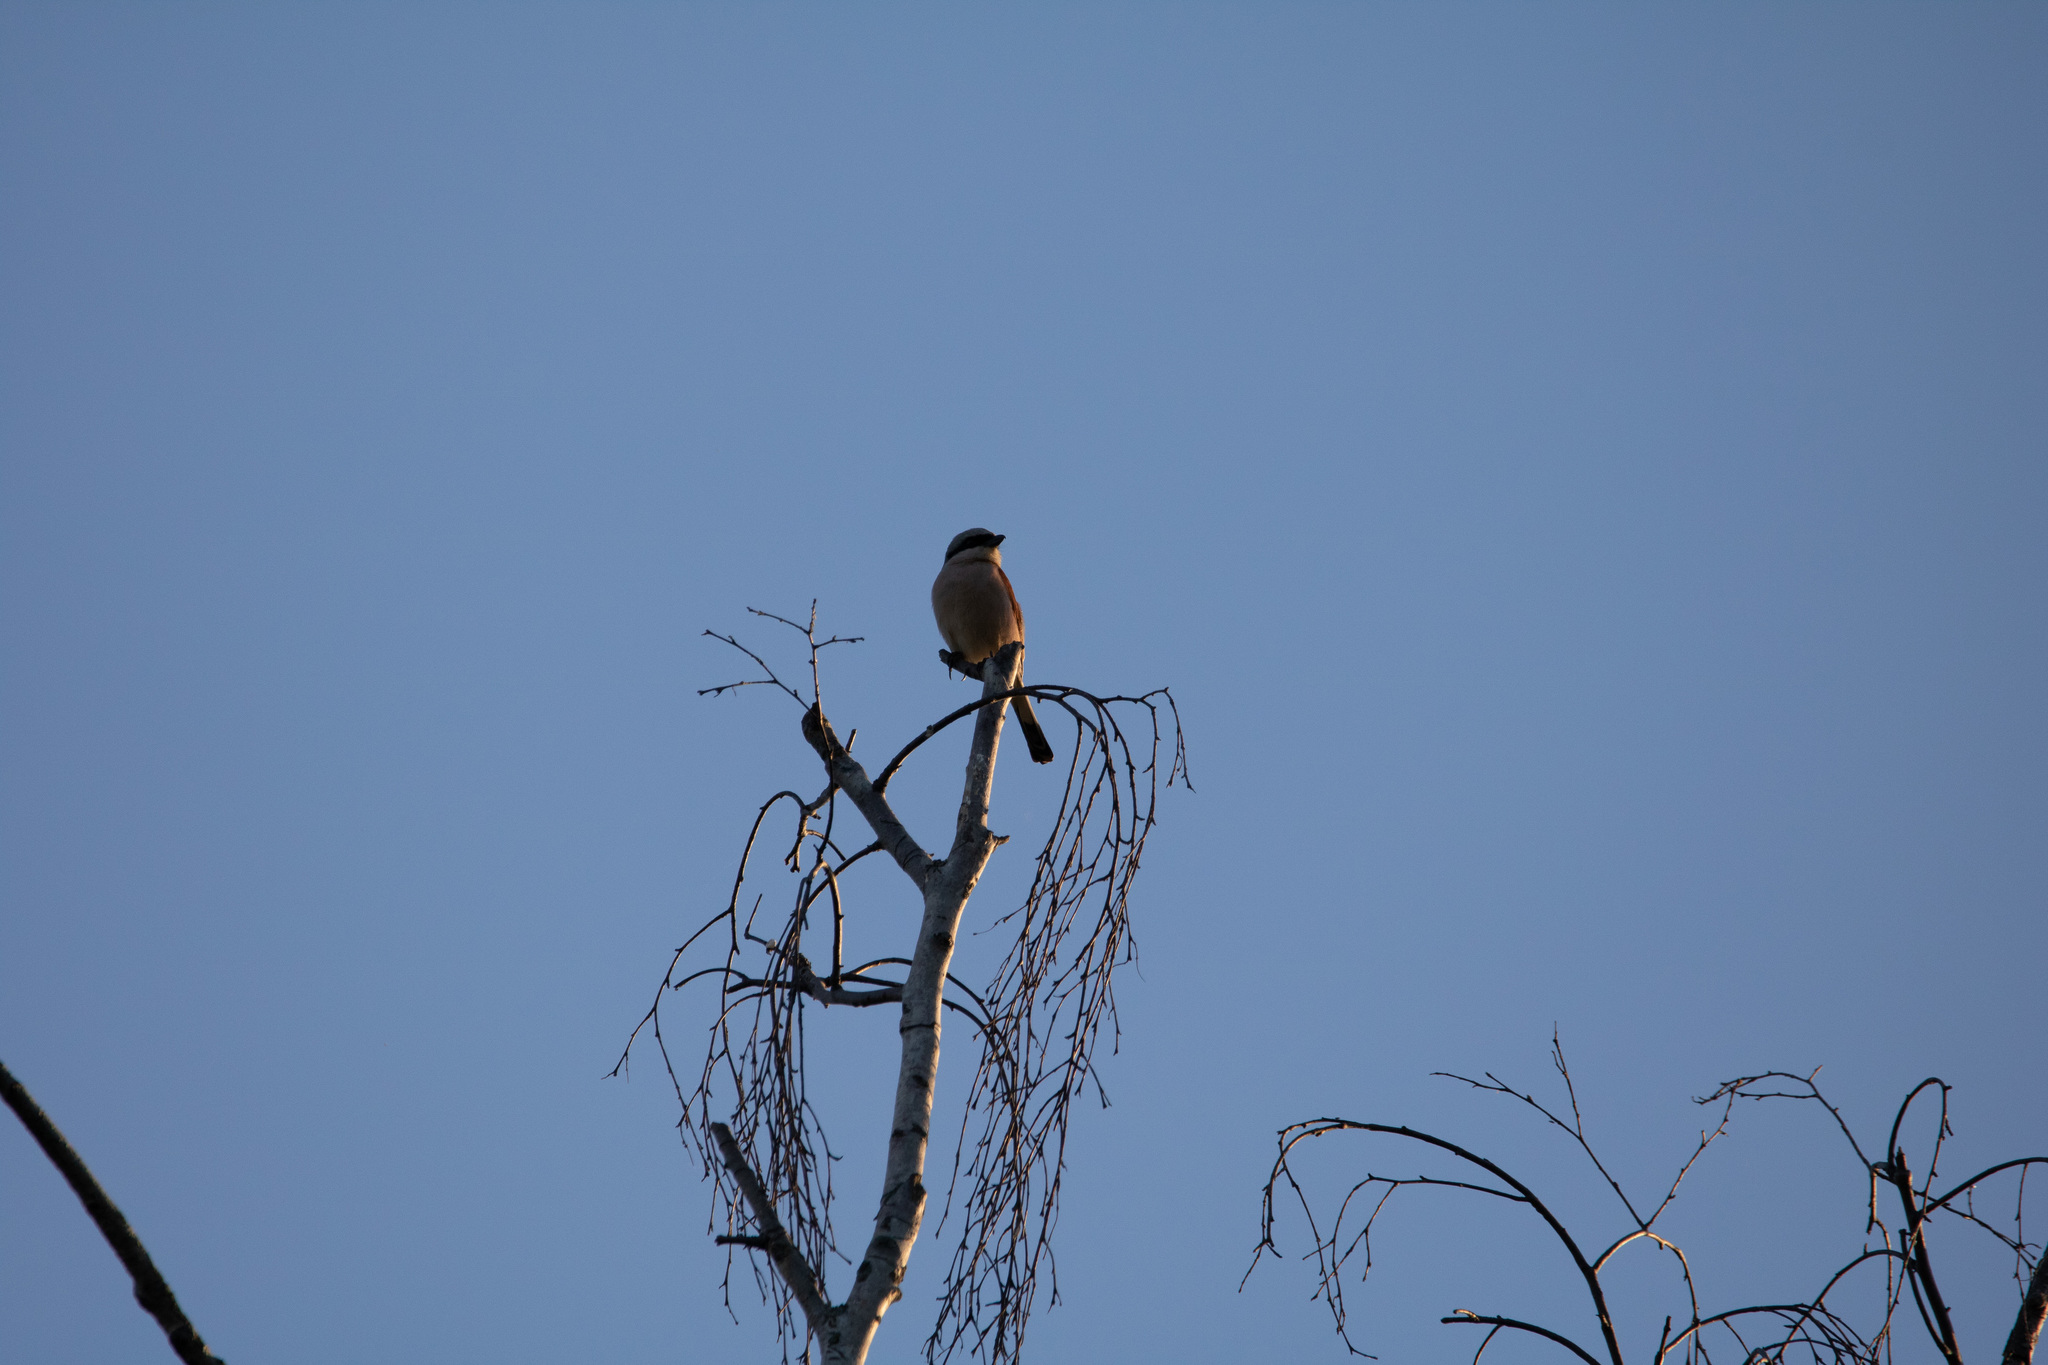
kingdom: Animalia
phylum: Chordata
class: Aves
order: Passeriformes
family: Laniidae
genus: Lanius
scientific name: Lanius collurio
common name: Red-backed shrike
